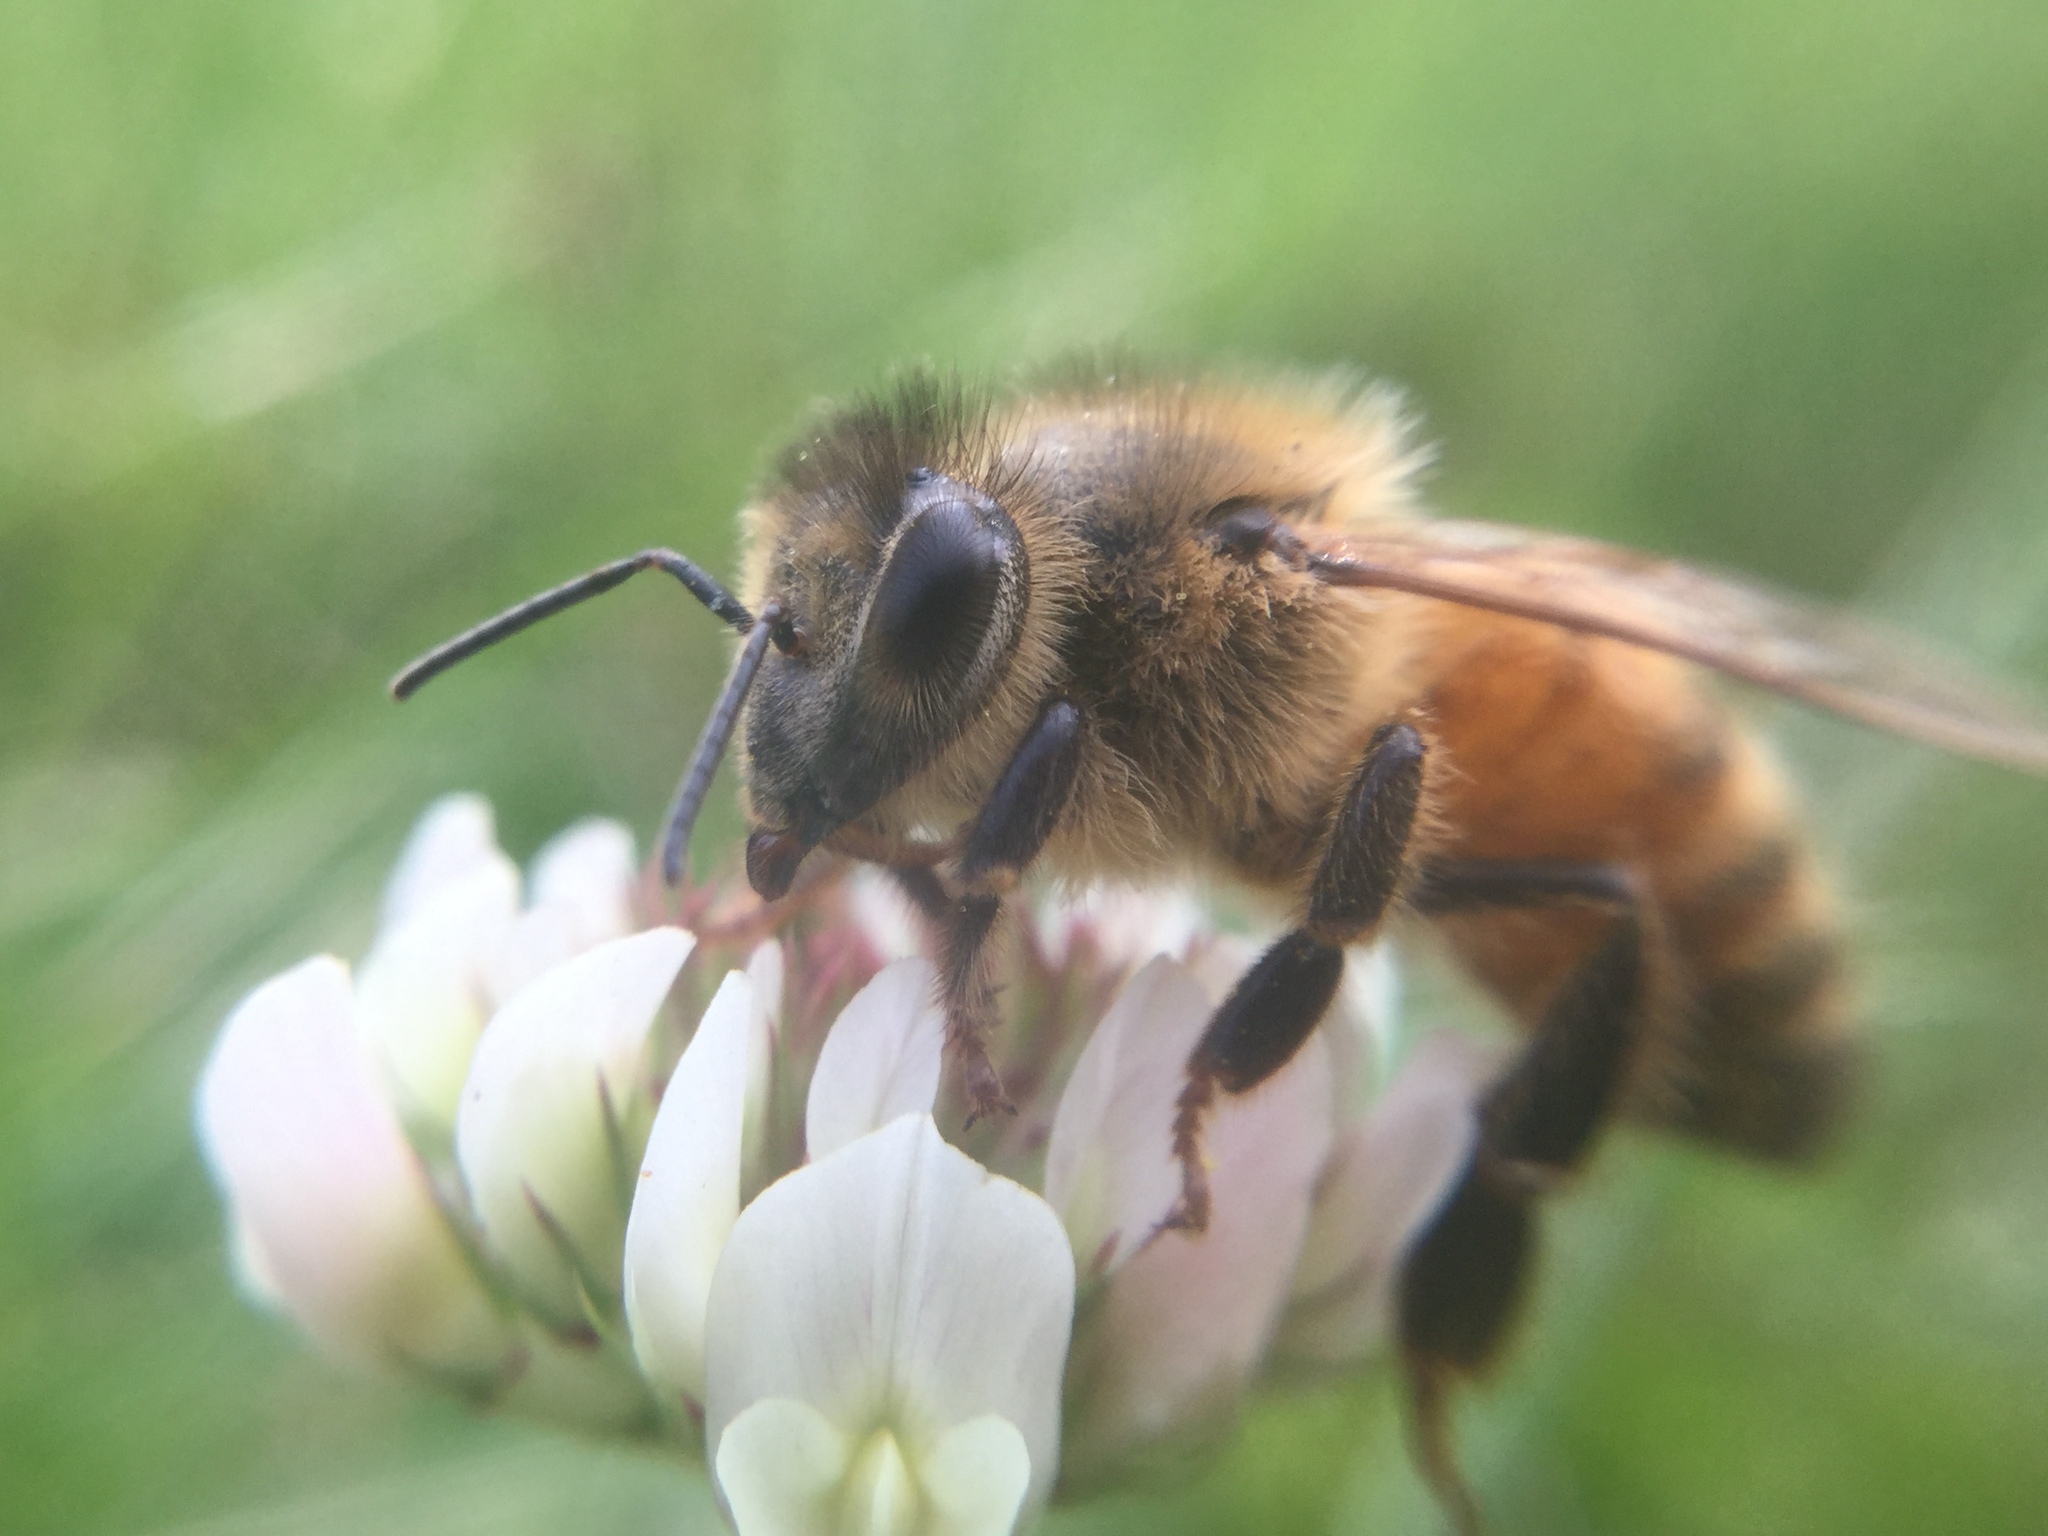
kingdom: Animalia
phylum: Arthropoda
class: Insecta
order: Hymenoptera
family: Apidae
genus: Apis
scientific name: Apis mellifera
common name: Honey bee
